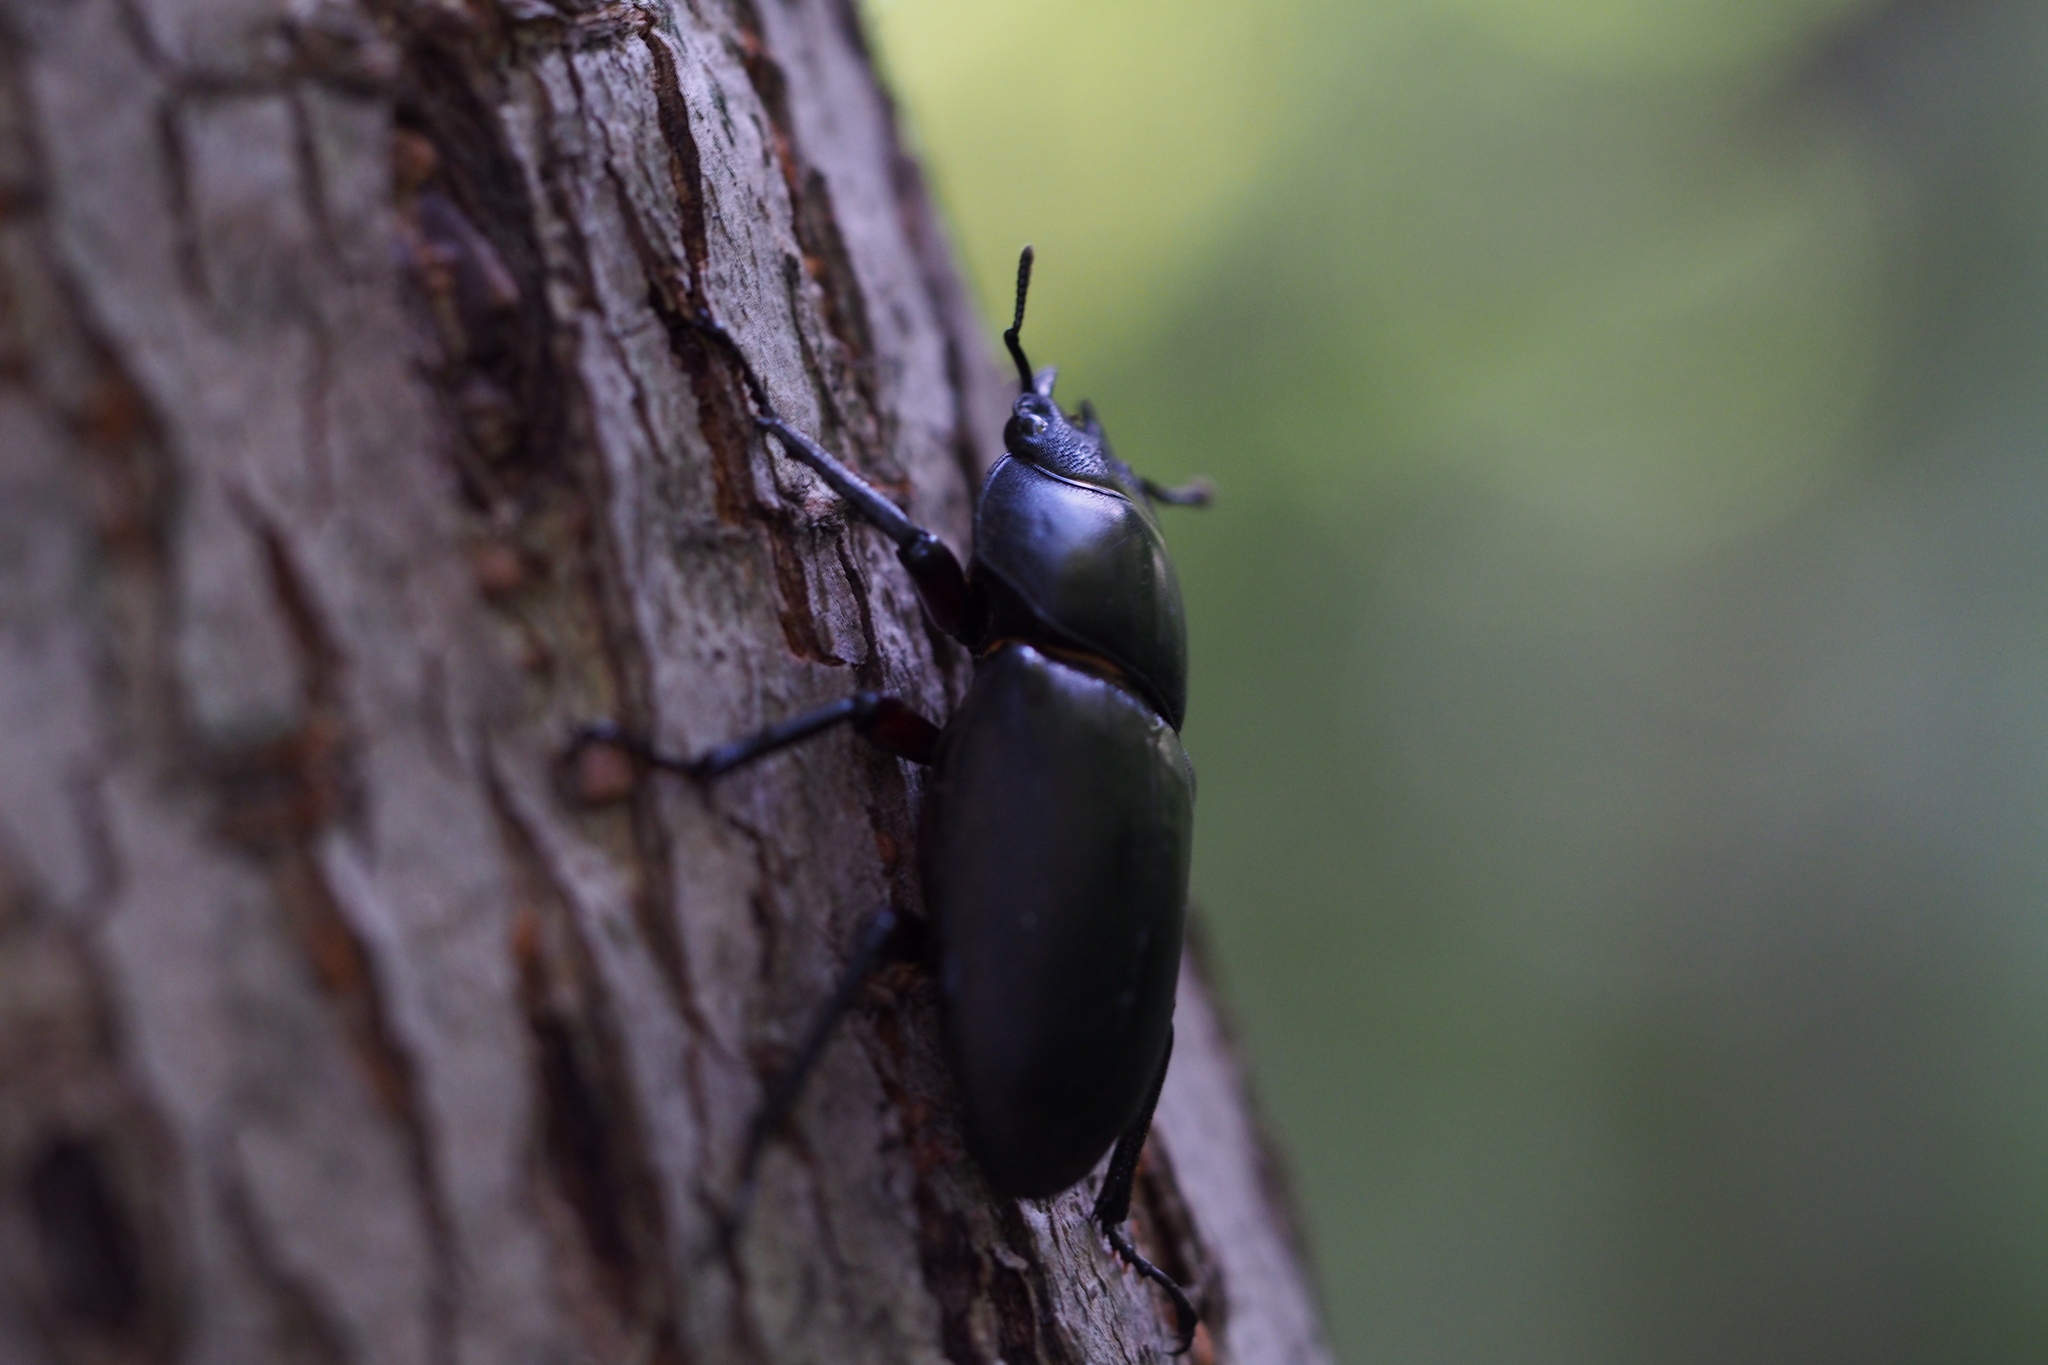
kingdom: Animalia
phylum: Arthropoda
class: Insecta
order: Coleoptera
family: Lucanidae
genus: Dorcus
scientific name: Dorcus montivagus
